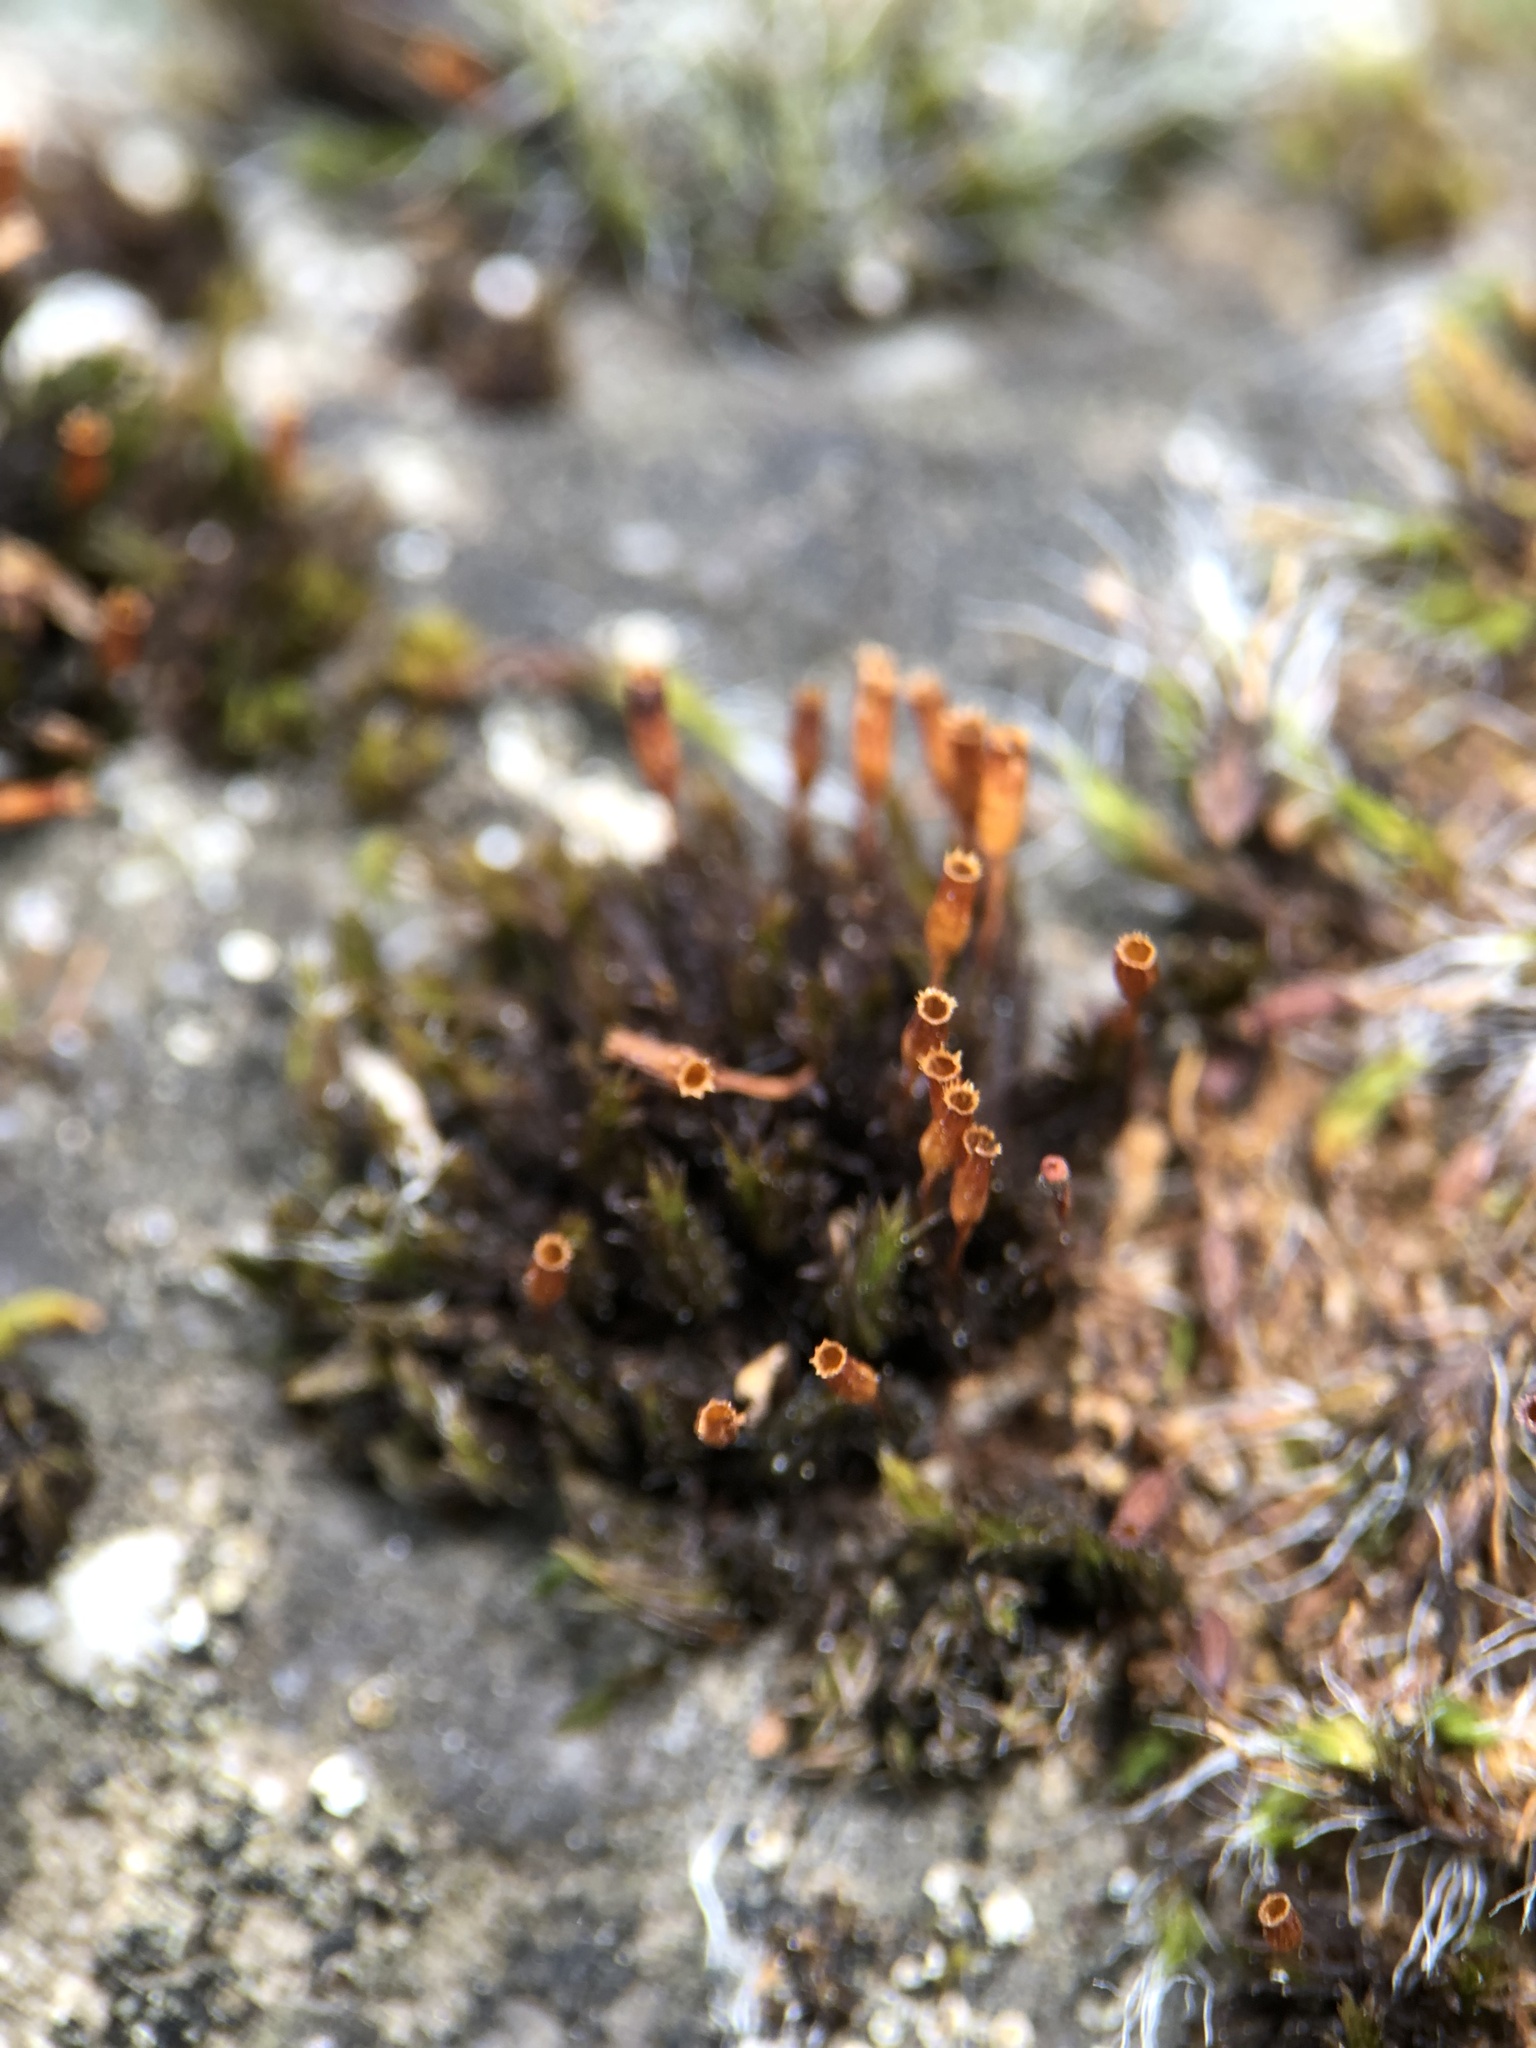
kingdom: Plantae
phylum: Bryophyta
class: Bryopsida
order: Orthotrichales
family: Orthotrichaceae
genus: Orthotrichum
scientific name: Orthotrichum anomalum
